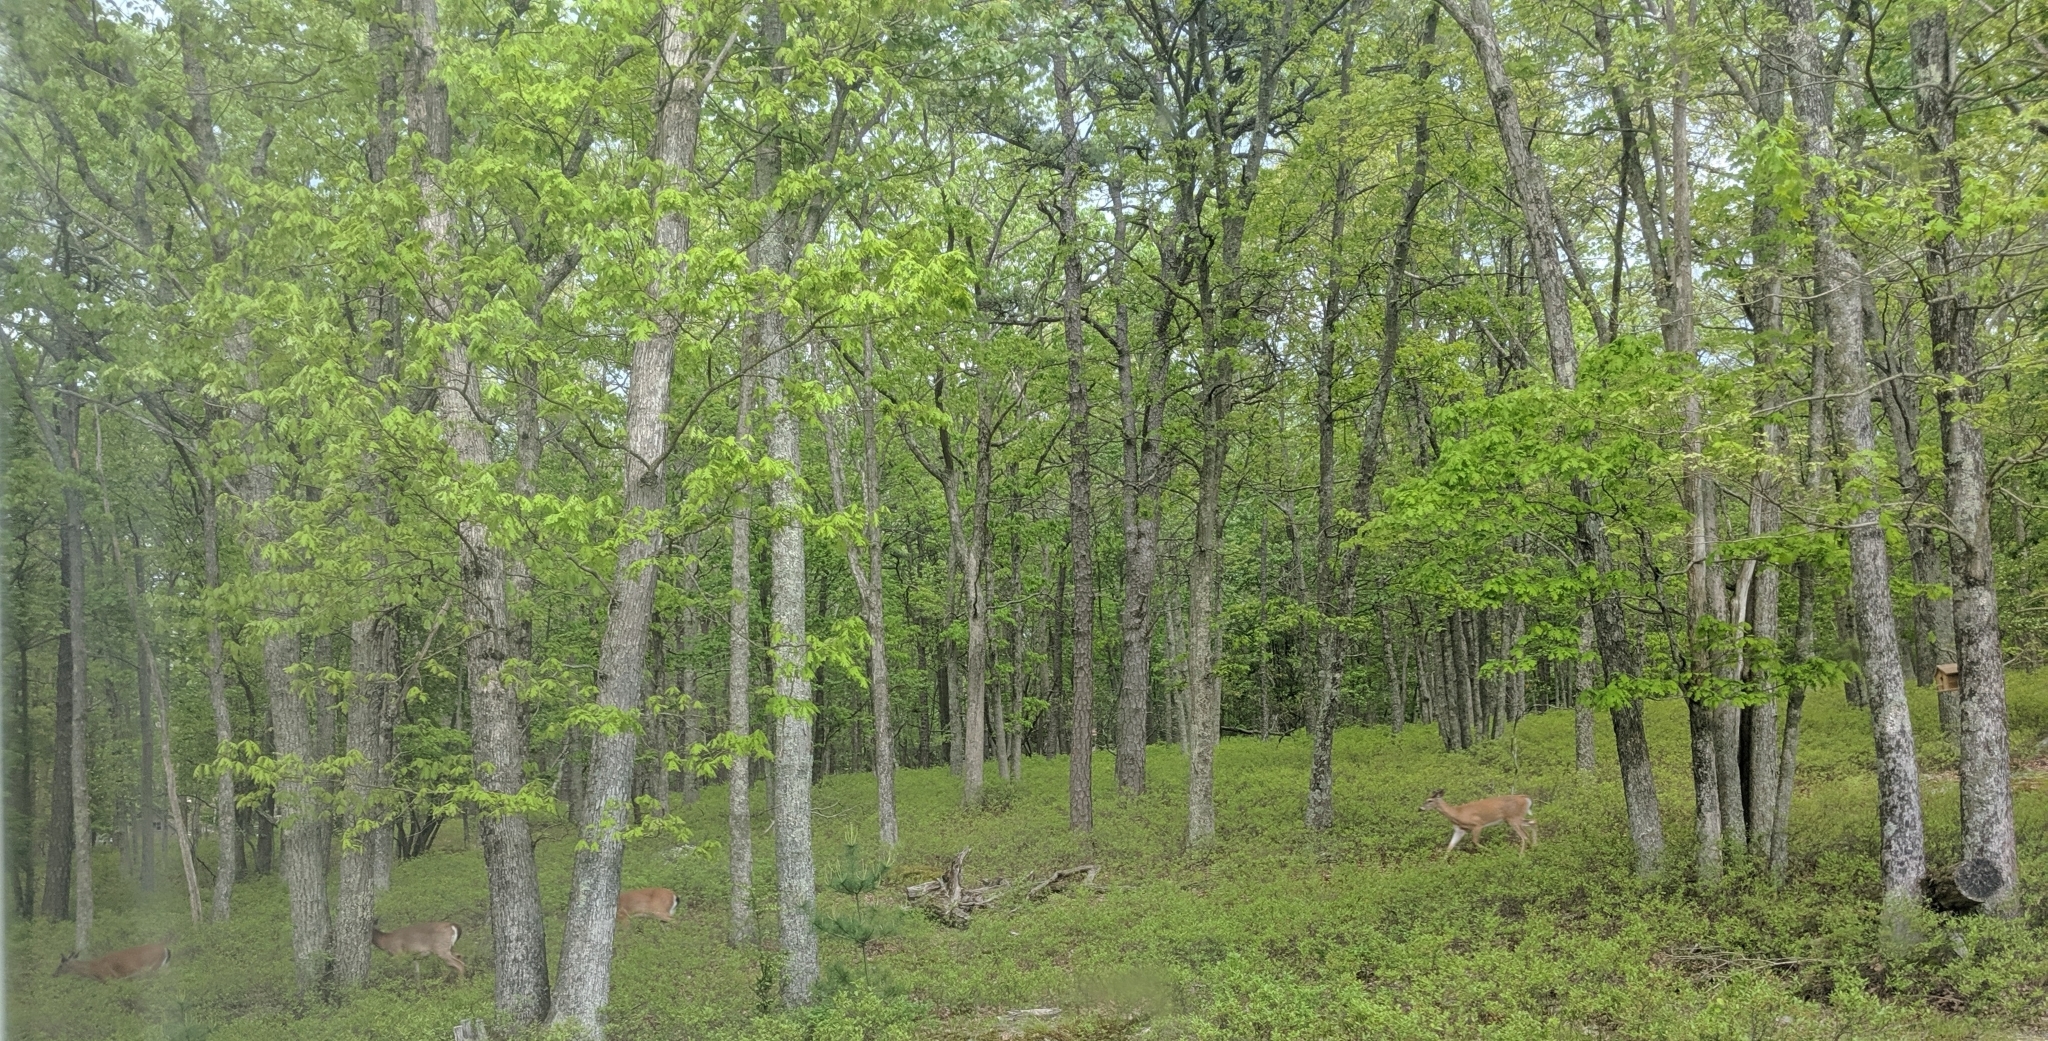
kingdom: Animalia
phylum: Chordata
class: Mammalia
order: Artiodactyla
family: Cervidae
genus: Odocoileus
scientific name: Odocoileus virginianus
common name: White-tailed deer
